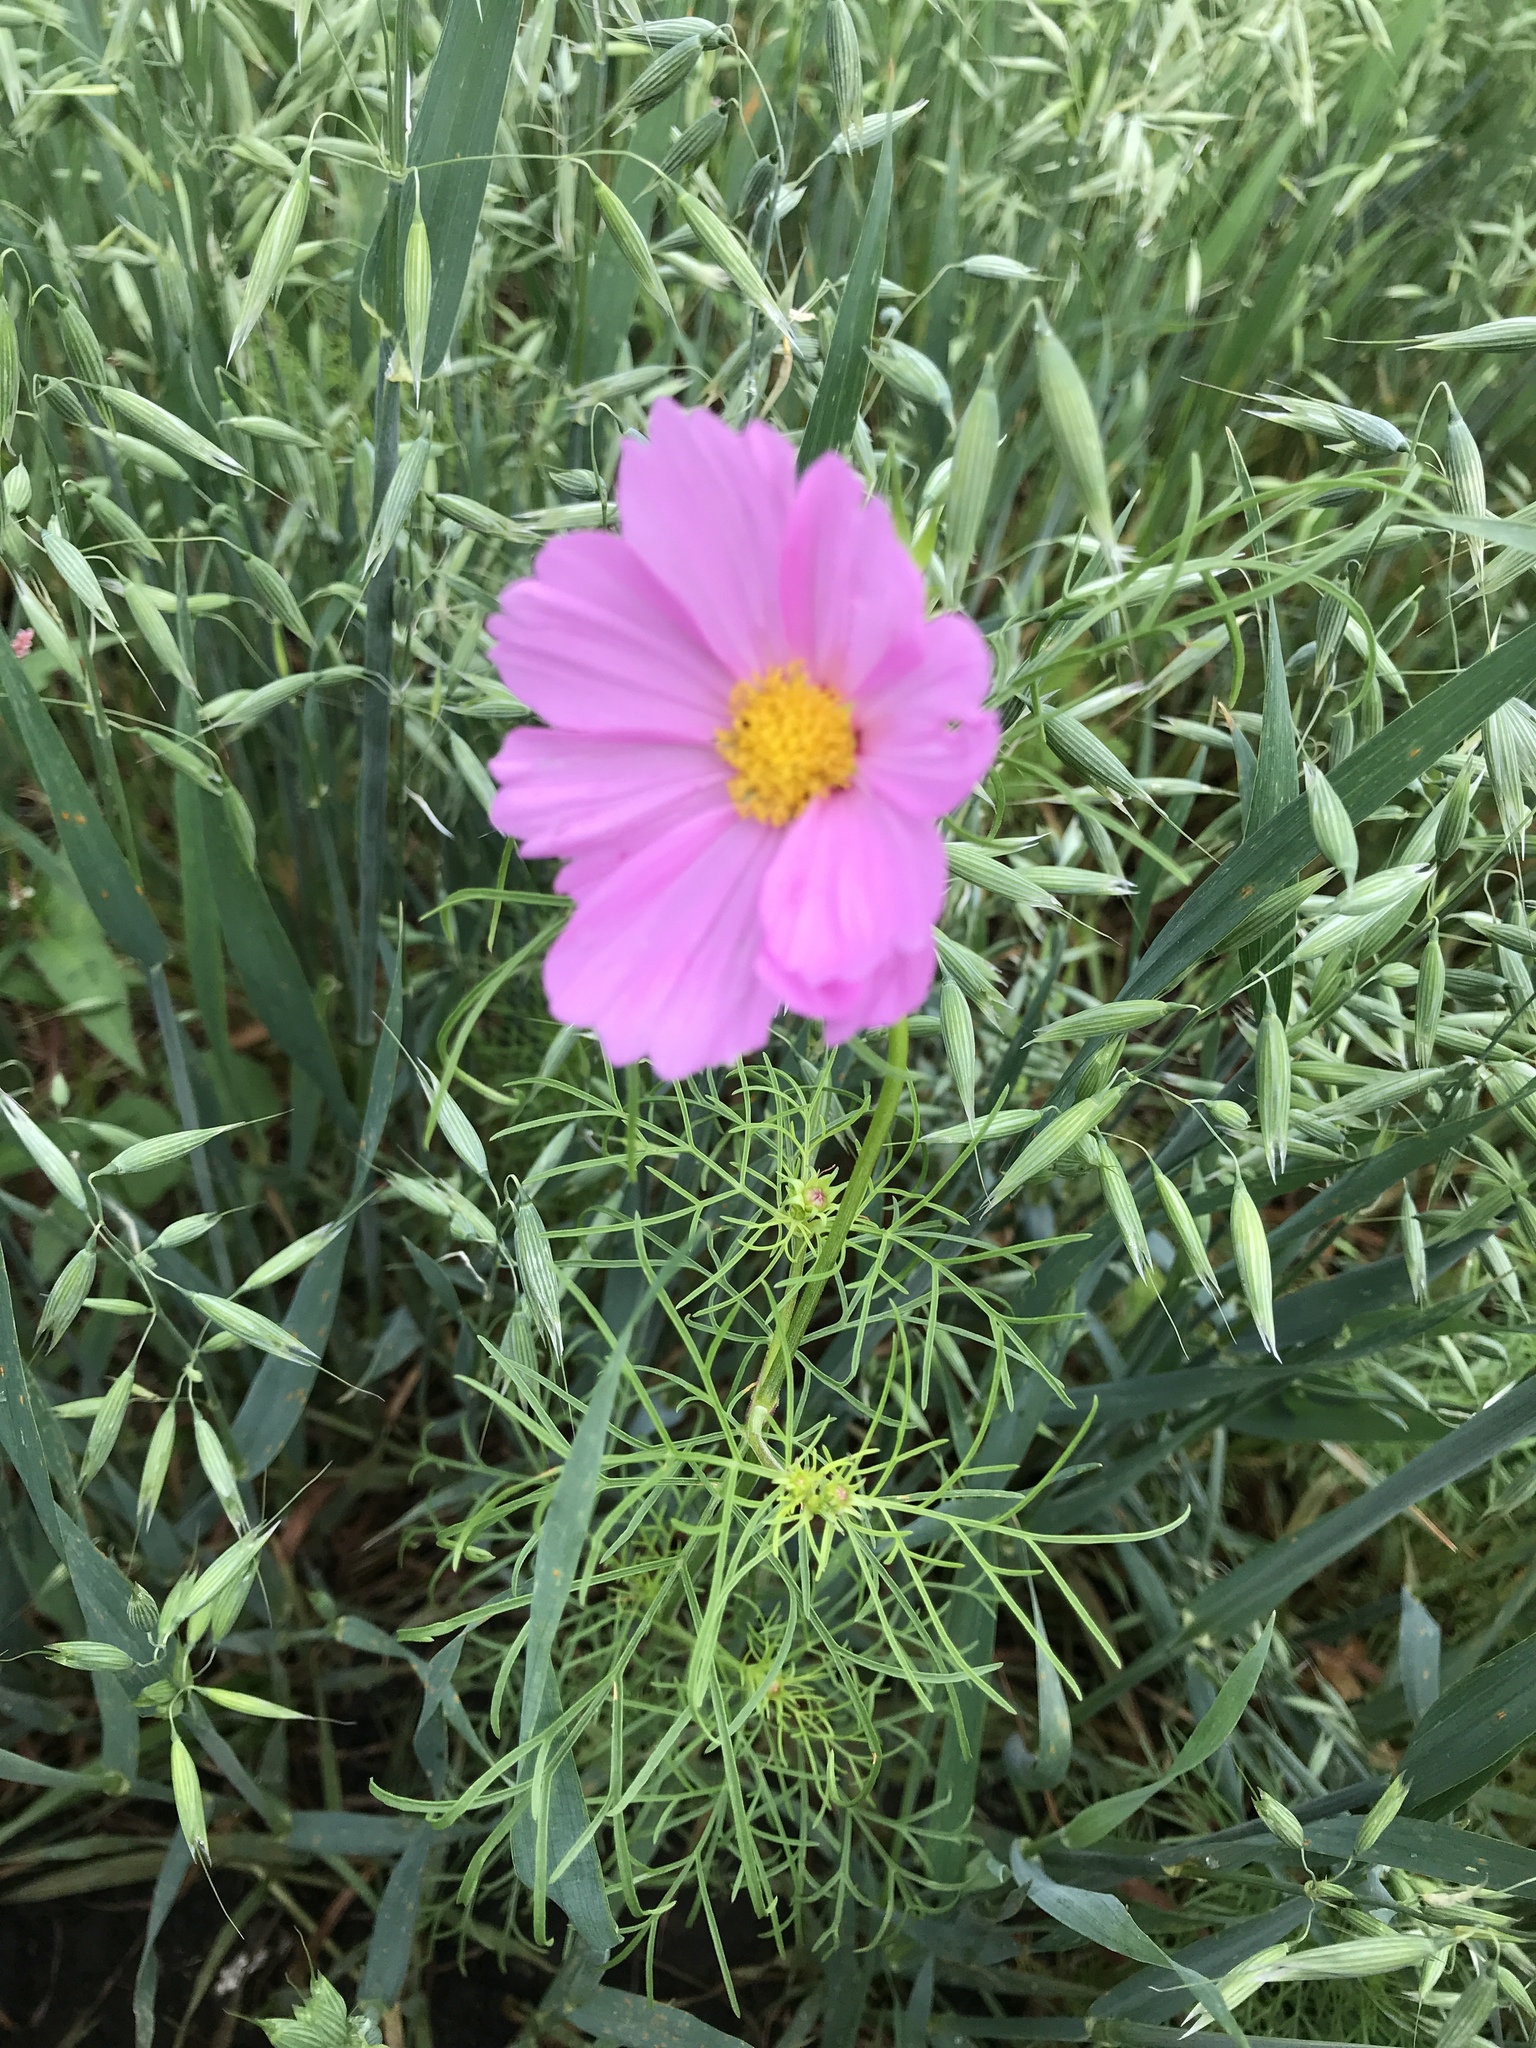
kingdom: Plantae
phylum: Tracheophyta
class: Magnoliopsida
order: Asterales
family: Asteraceae
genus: Cosmos
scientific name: Cosmos bipinnatus
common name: Garden cosmos
